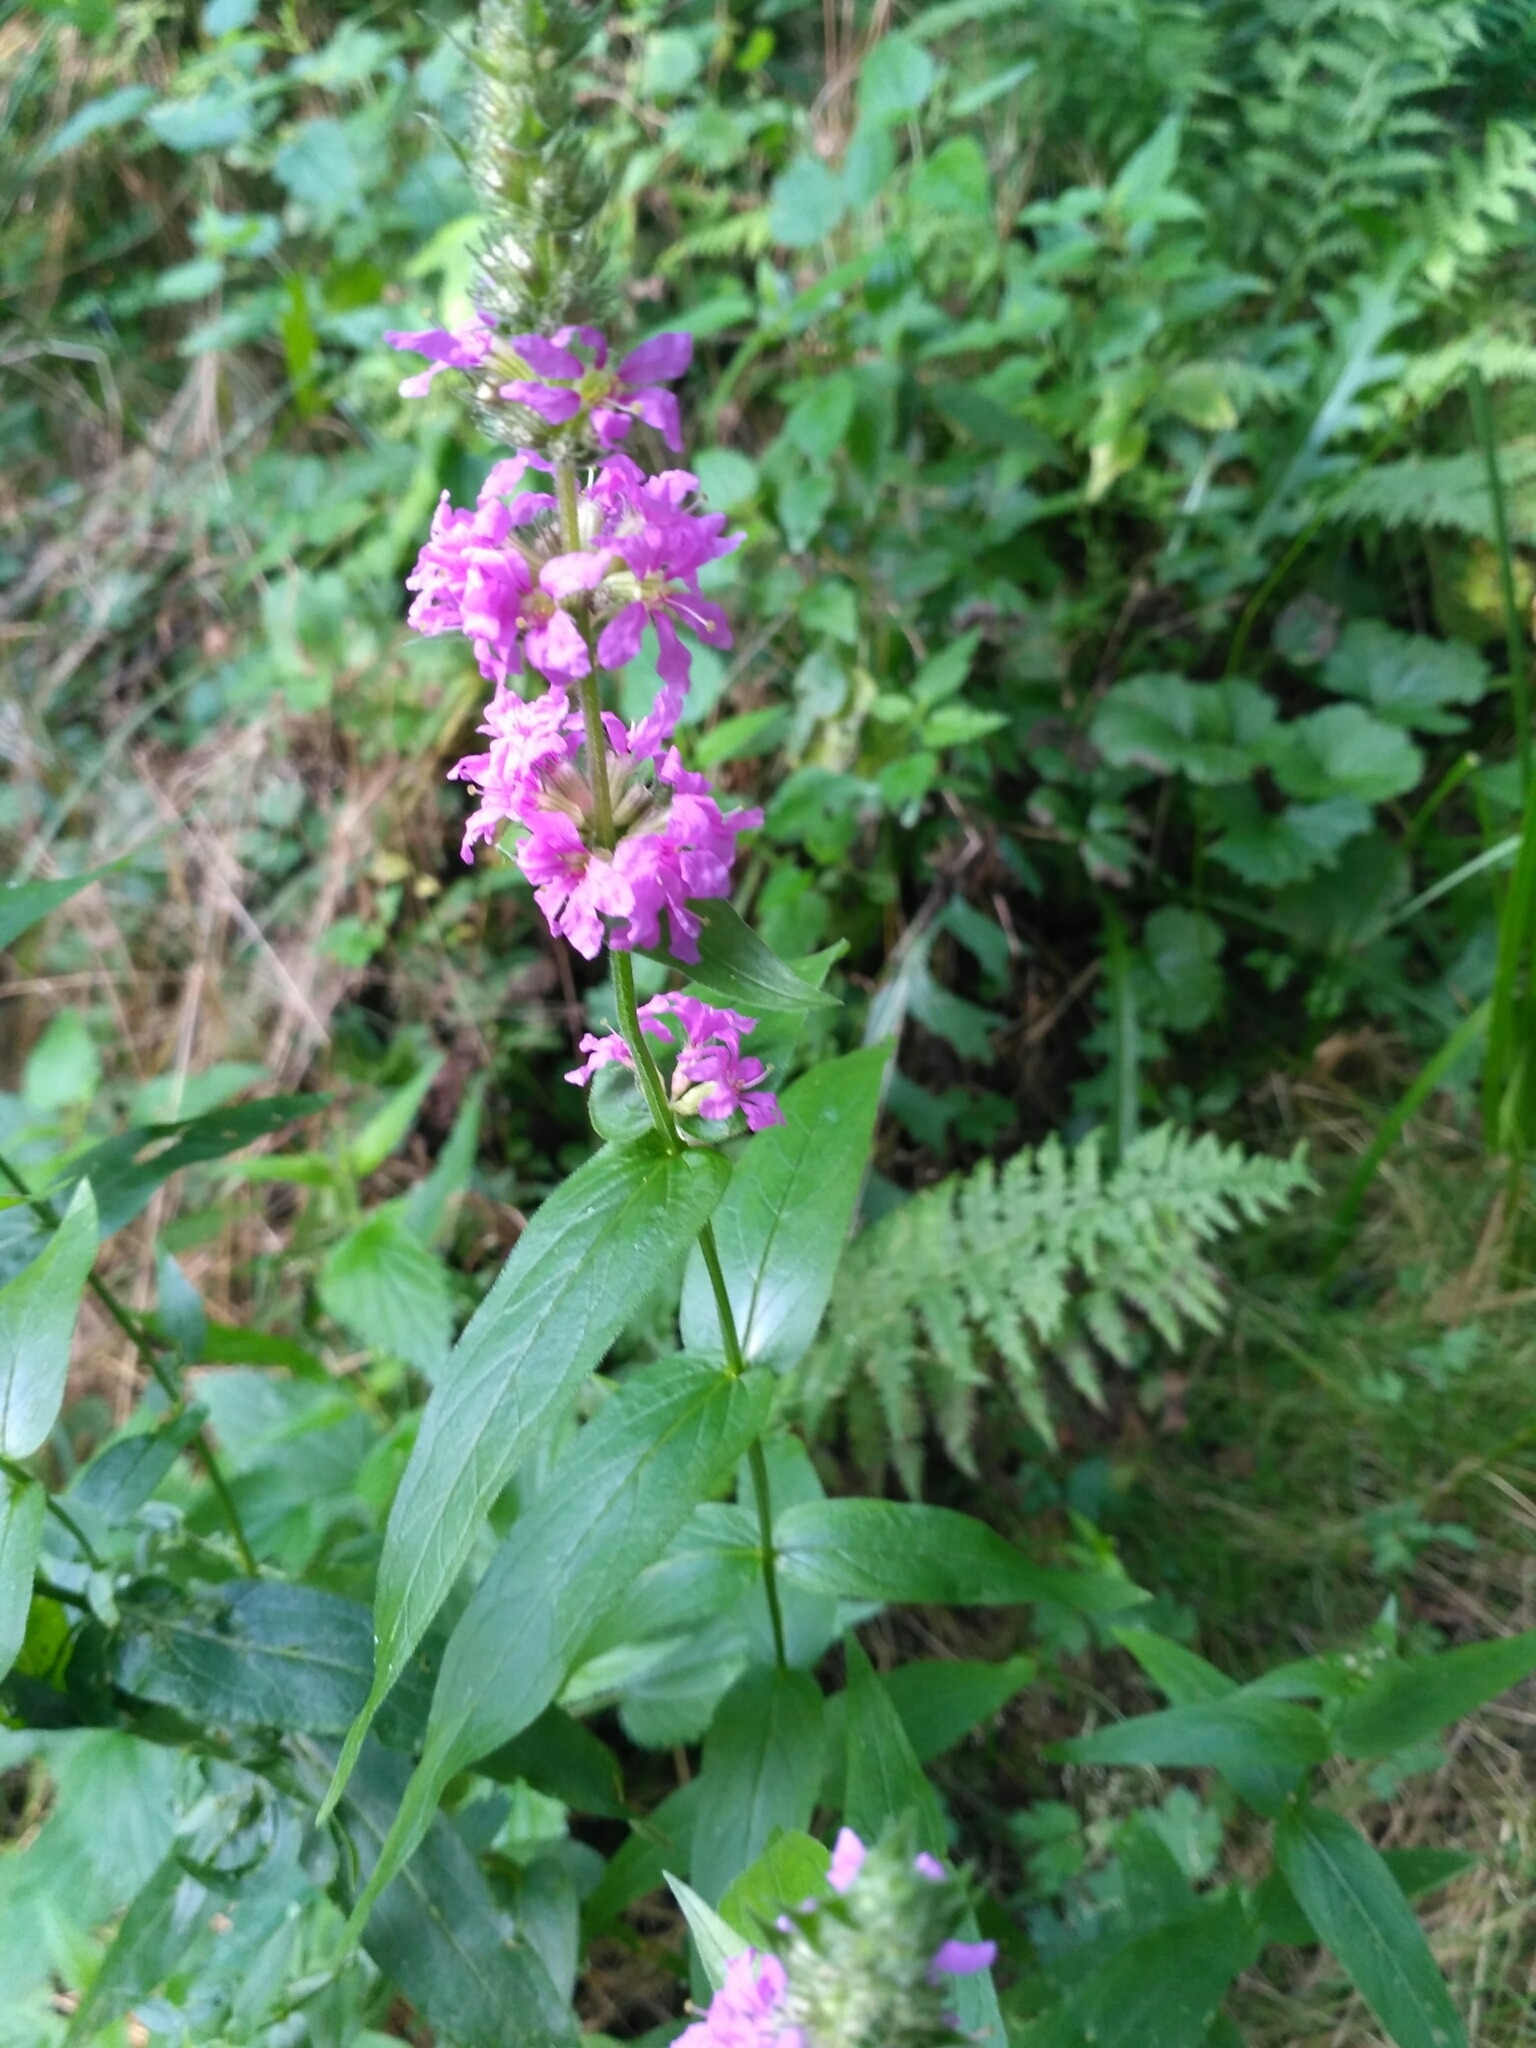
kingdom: Plantae
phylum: Tracheophyta
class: Magnoliopsida
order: Myrtales
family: Lythraceae
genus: Lythrum
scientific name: Lythrum salicaria
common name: Purple loosestrife
